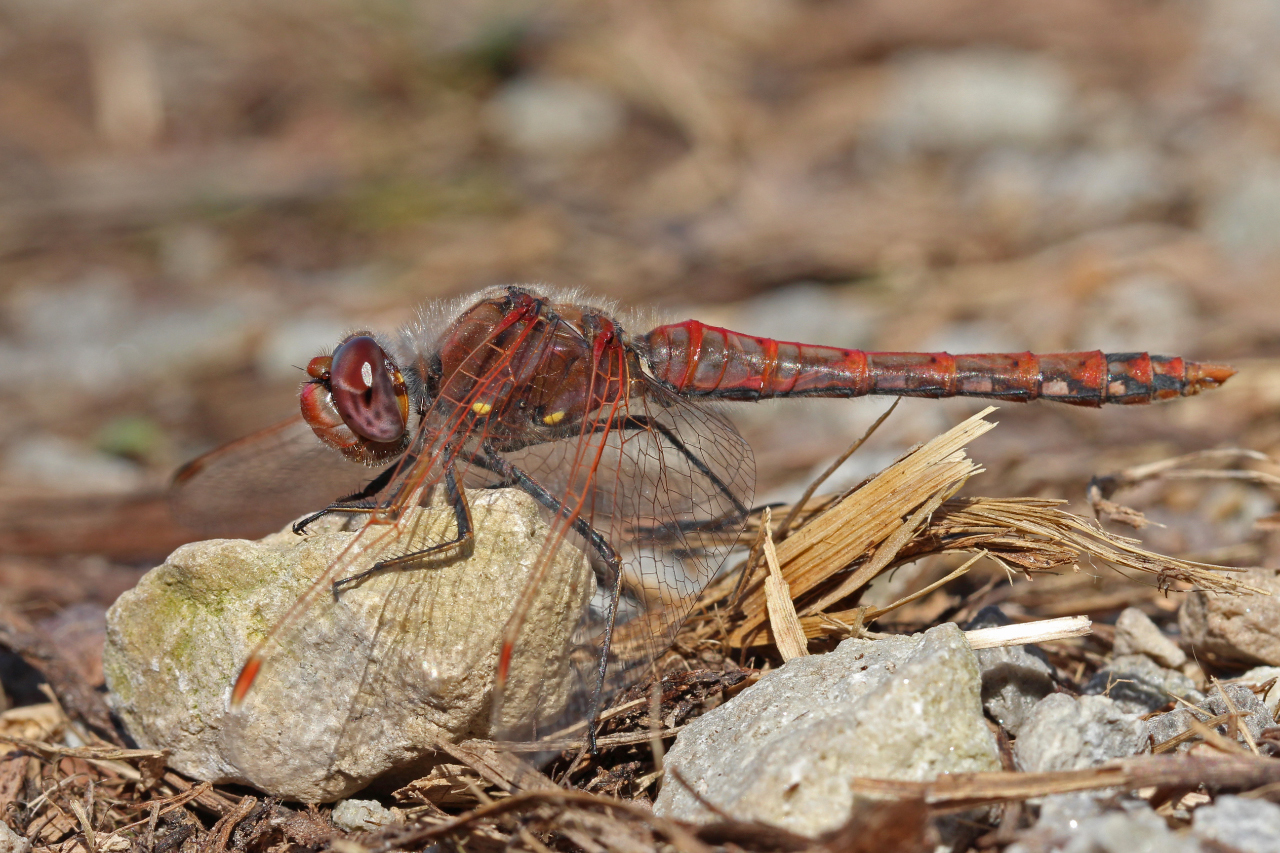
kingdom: Animalia
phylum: Arthropoda
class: Insecta
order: Odonata
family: Libellulidae
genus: Sympetrum
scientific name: Sympetrum corruptum
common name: Variegated meadowhawk
